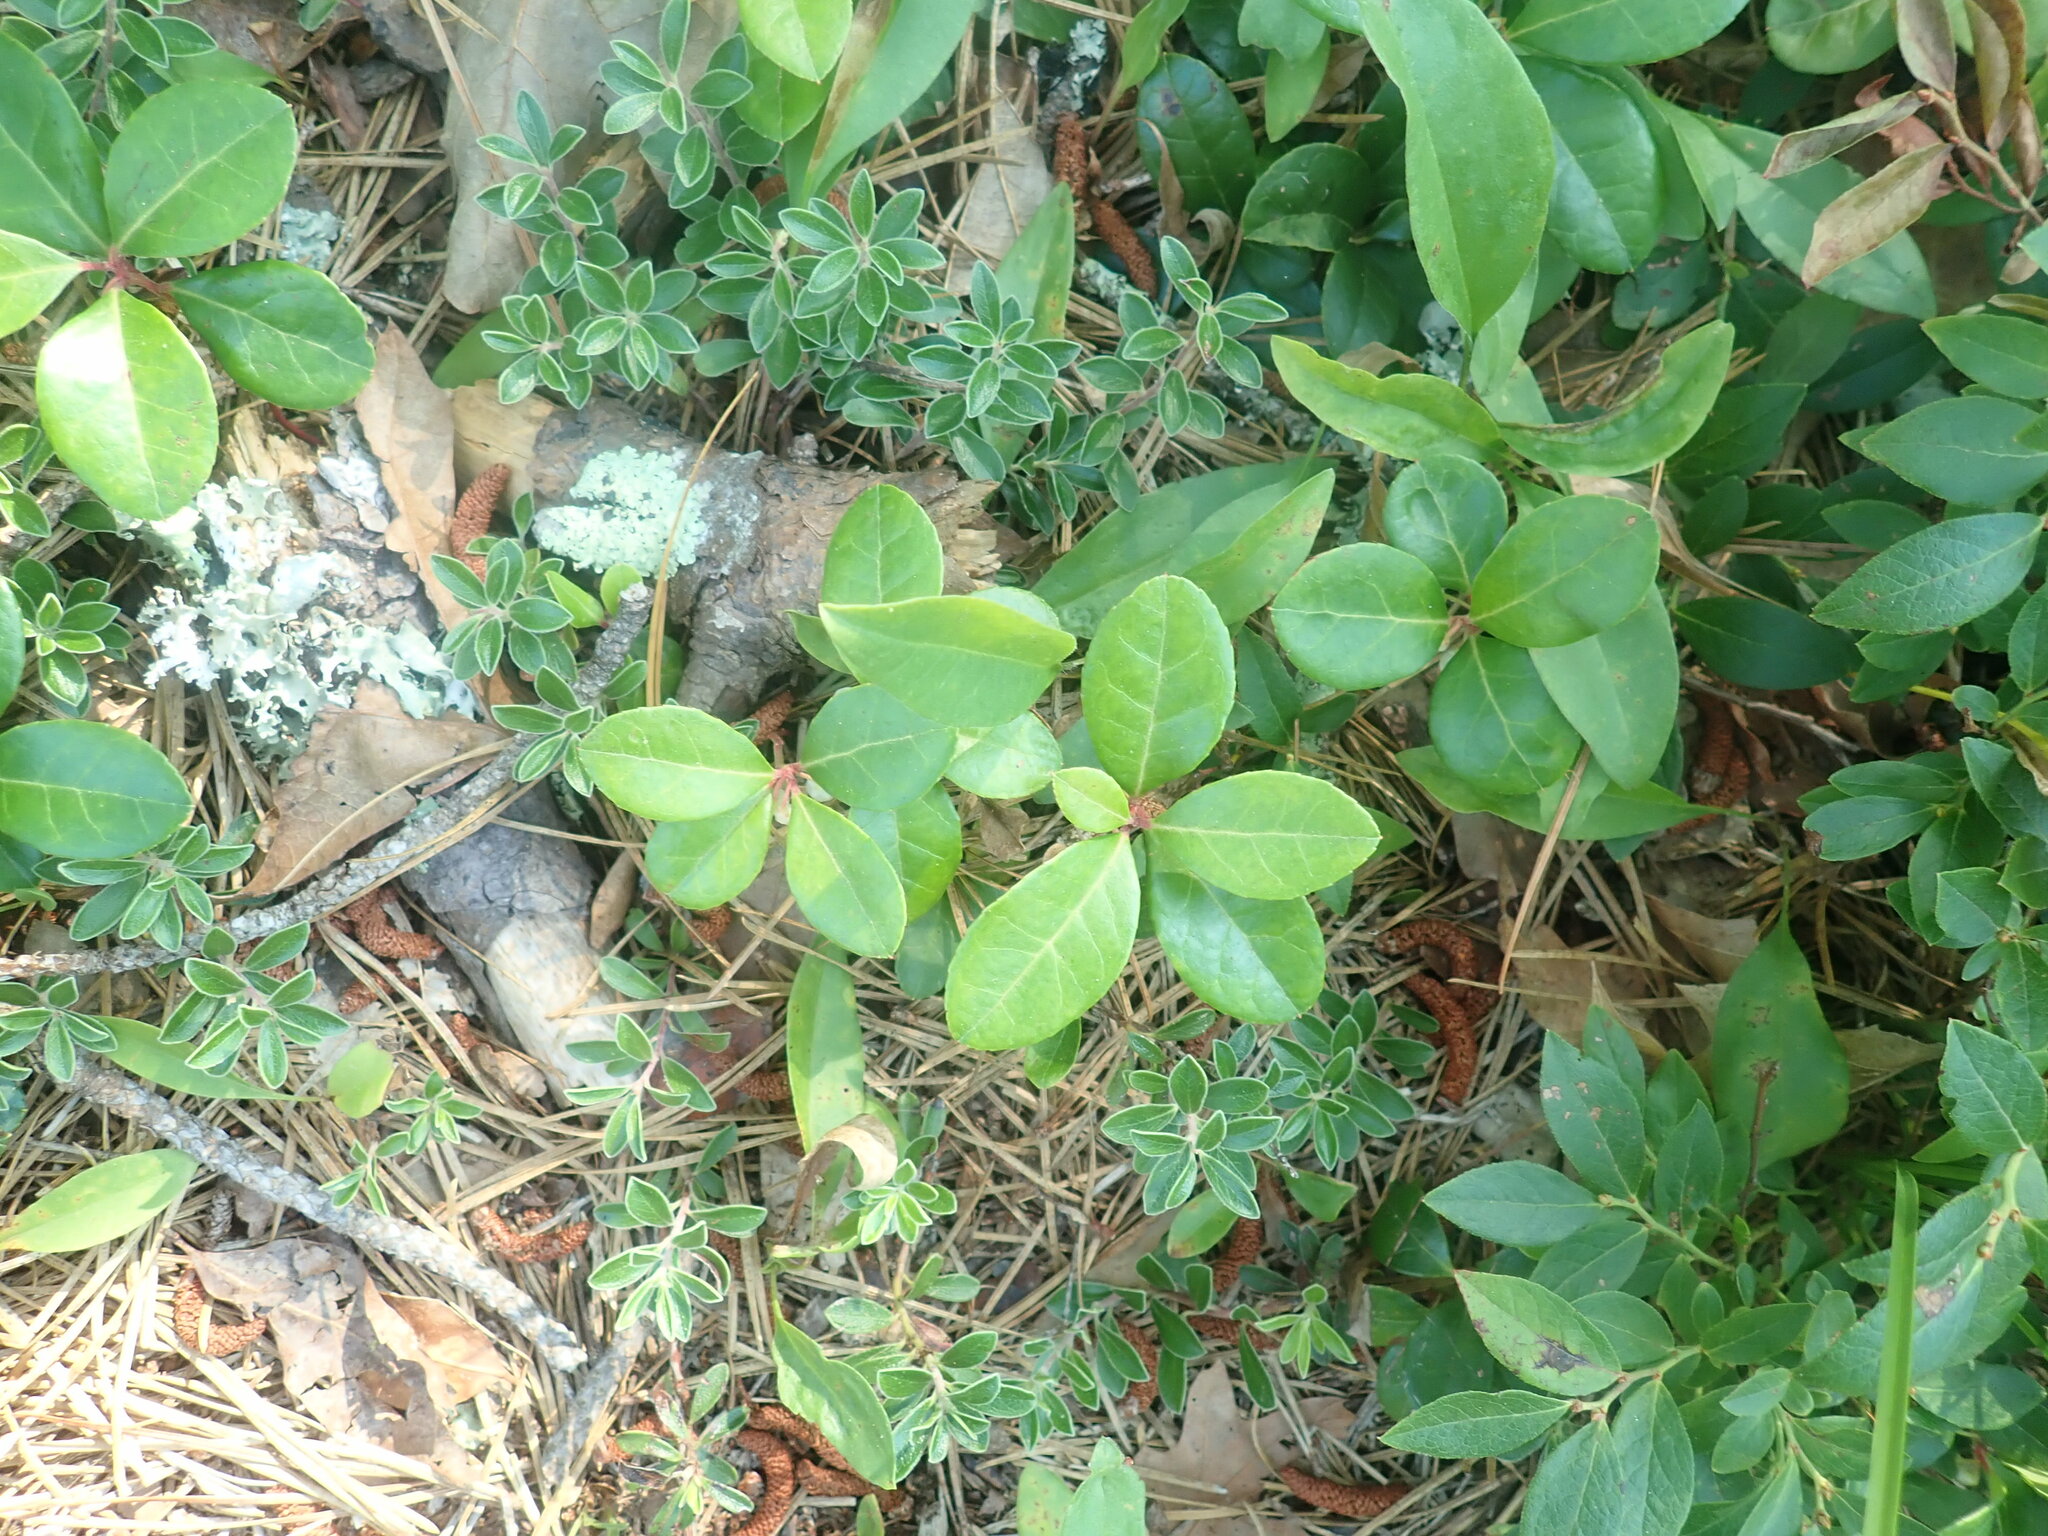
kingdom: Plantae
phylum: Tracheophyta
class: Magnoliopsida
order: Ericales
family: Ericaceae
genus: Gaultheria
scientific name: Gaultheria procumbens
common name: Checkerberry
